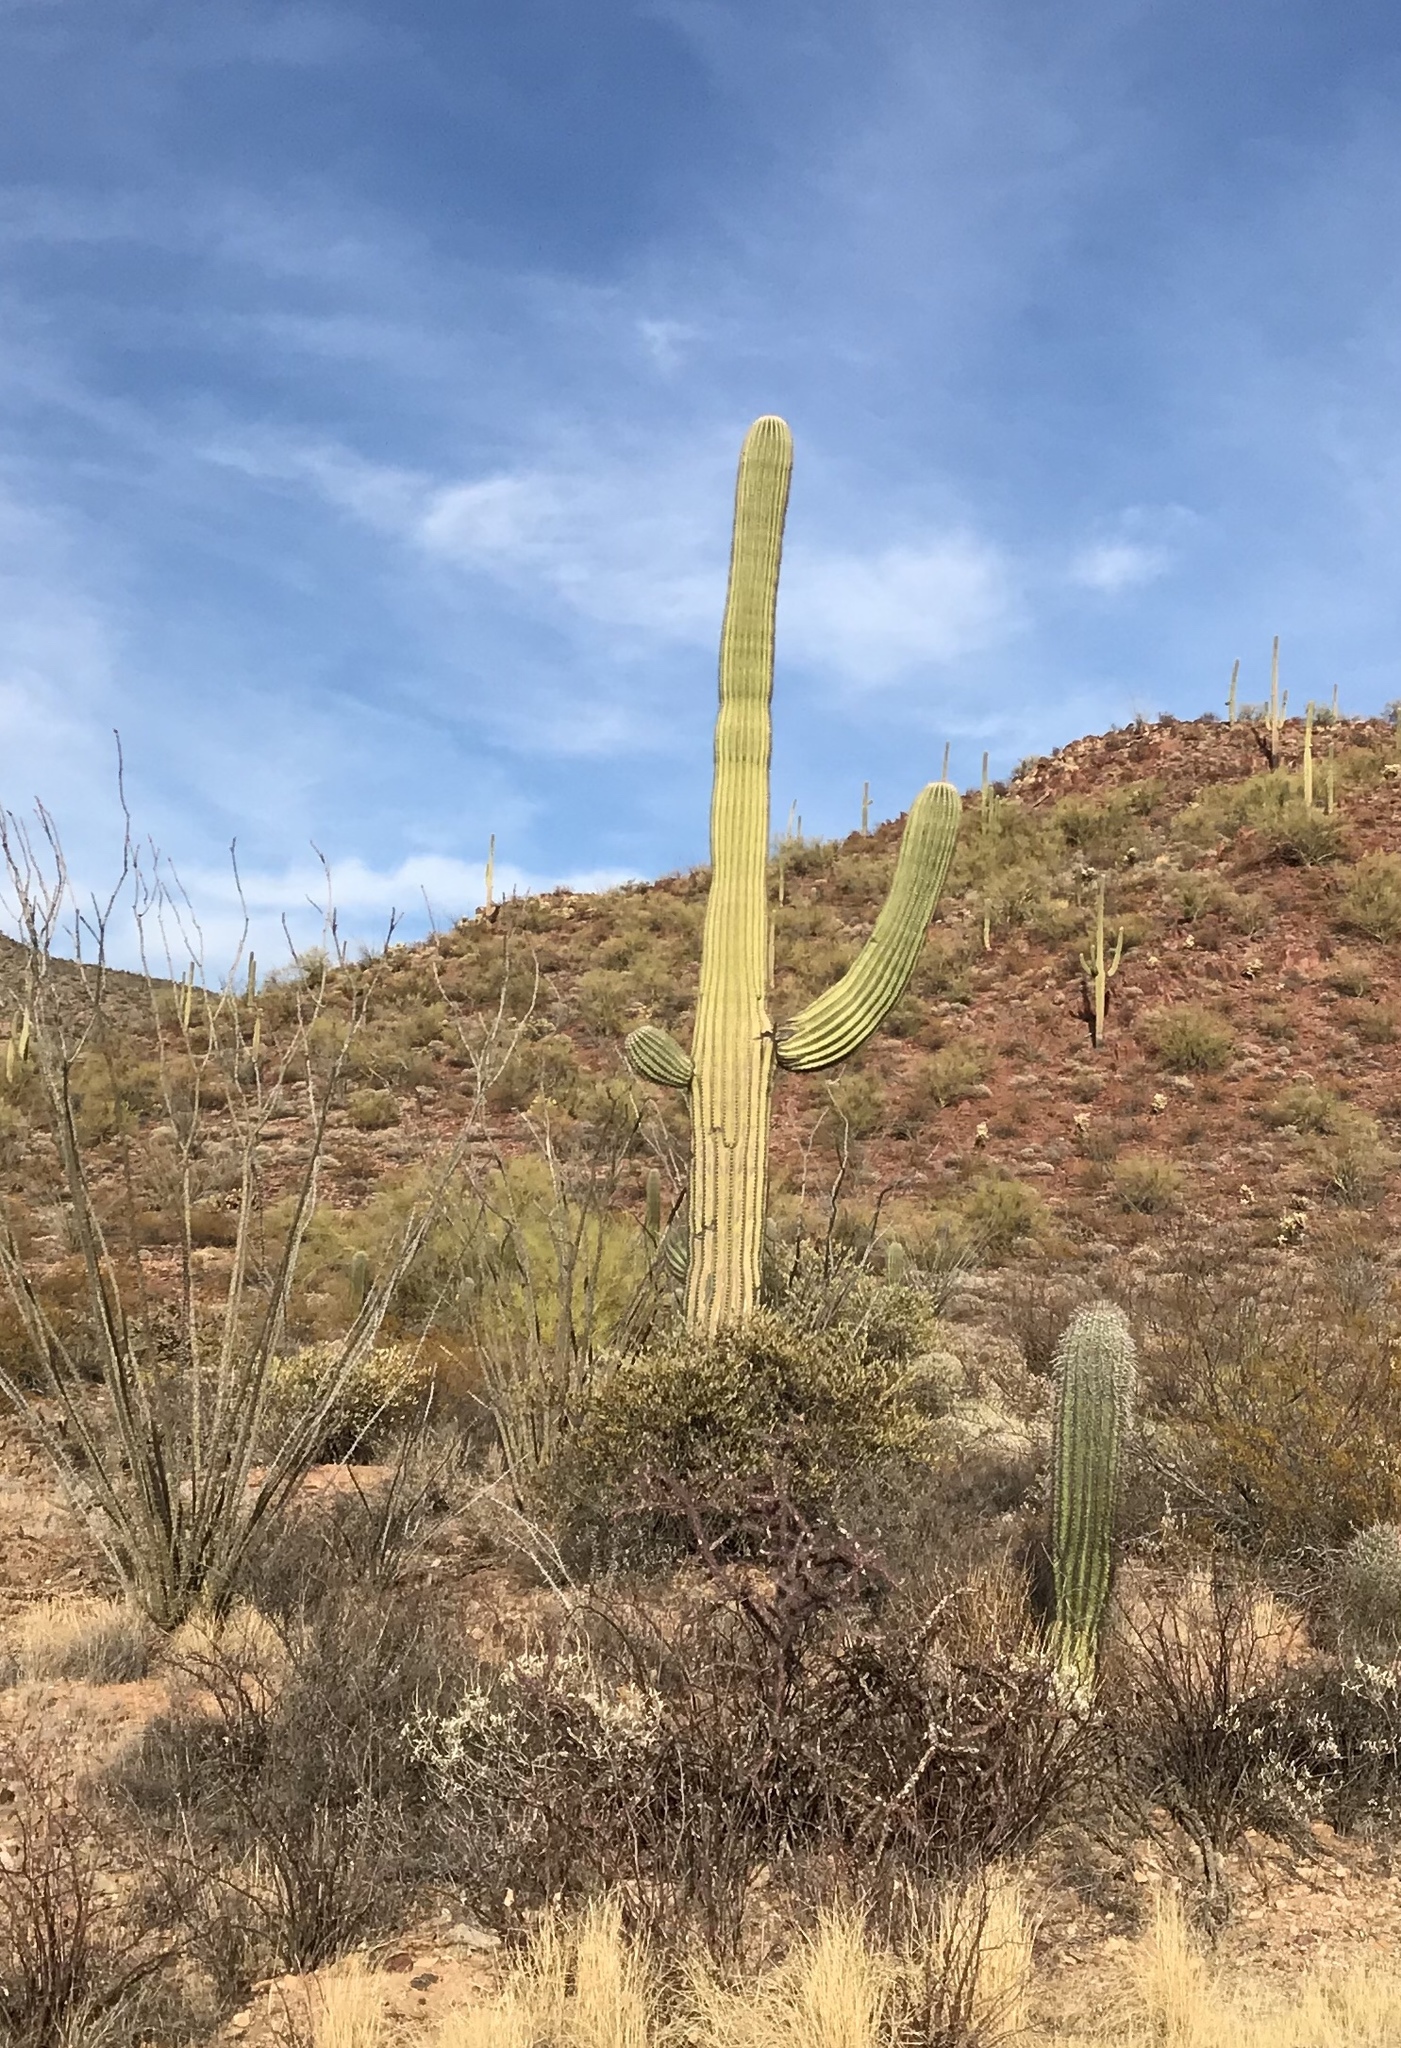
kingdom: Plantae
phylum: Tracheophyta
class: Magnoliopsida
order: Caryophyllales
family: Cactaceae
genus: Carnegiea
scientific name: Carnegiea gigantea
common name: Saguaro
